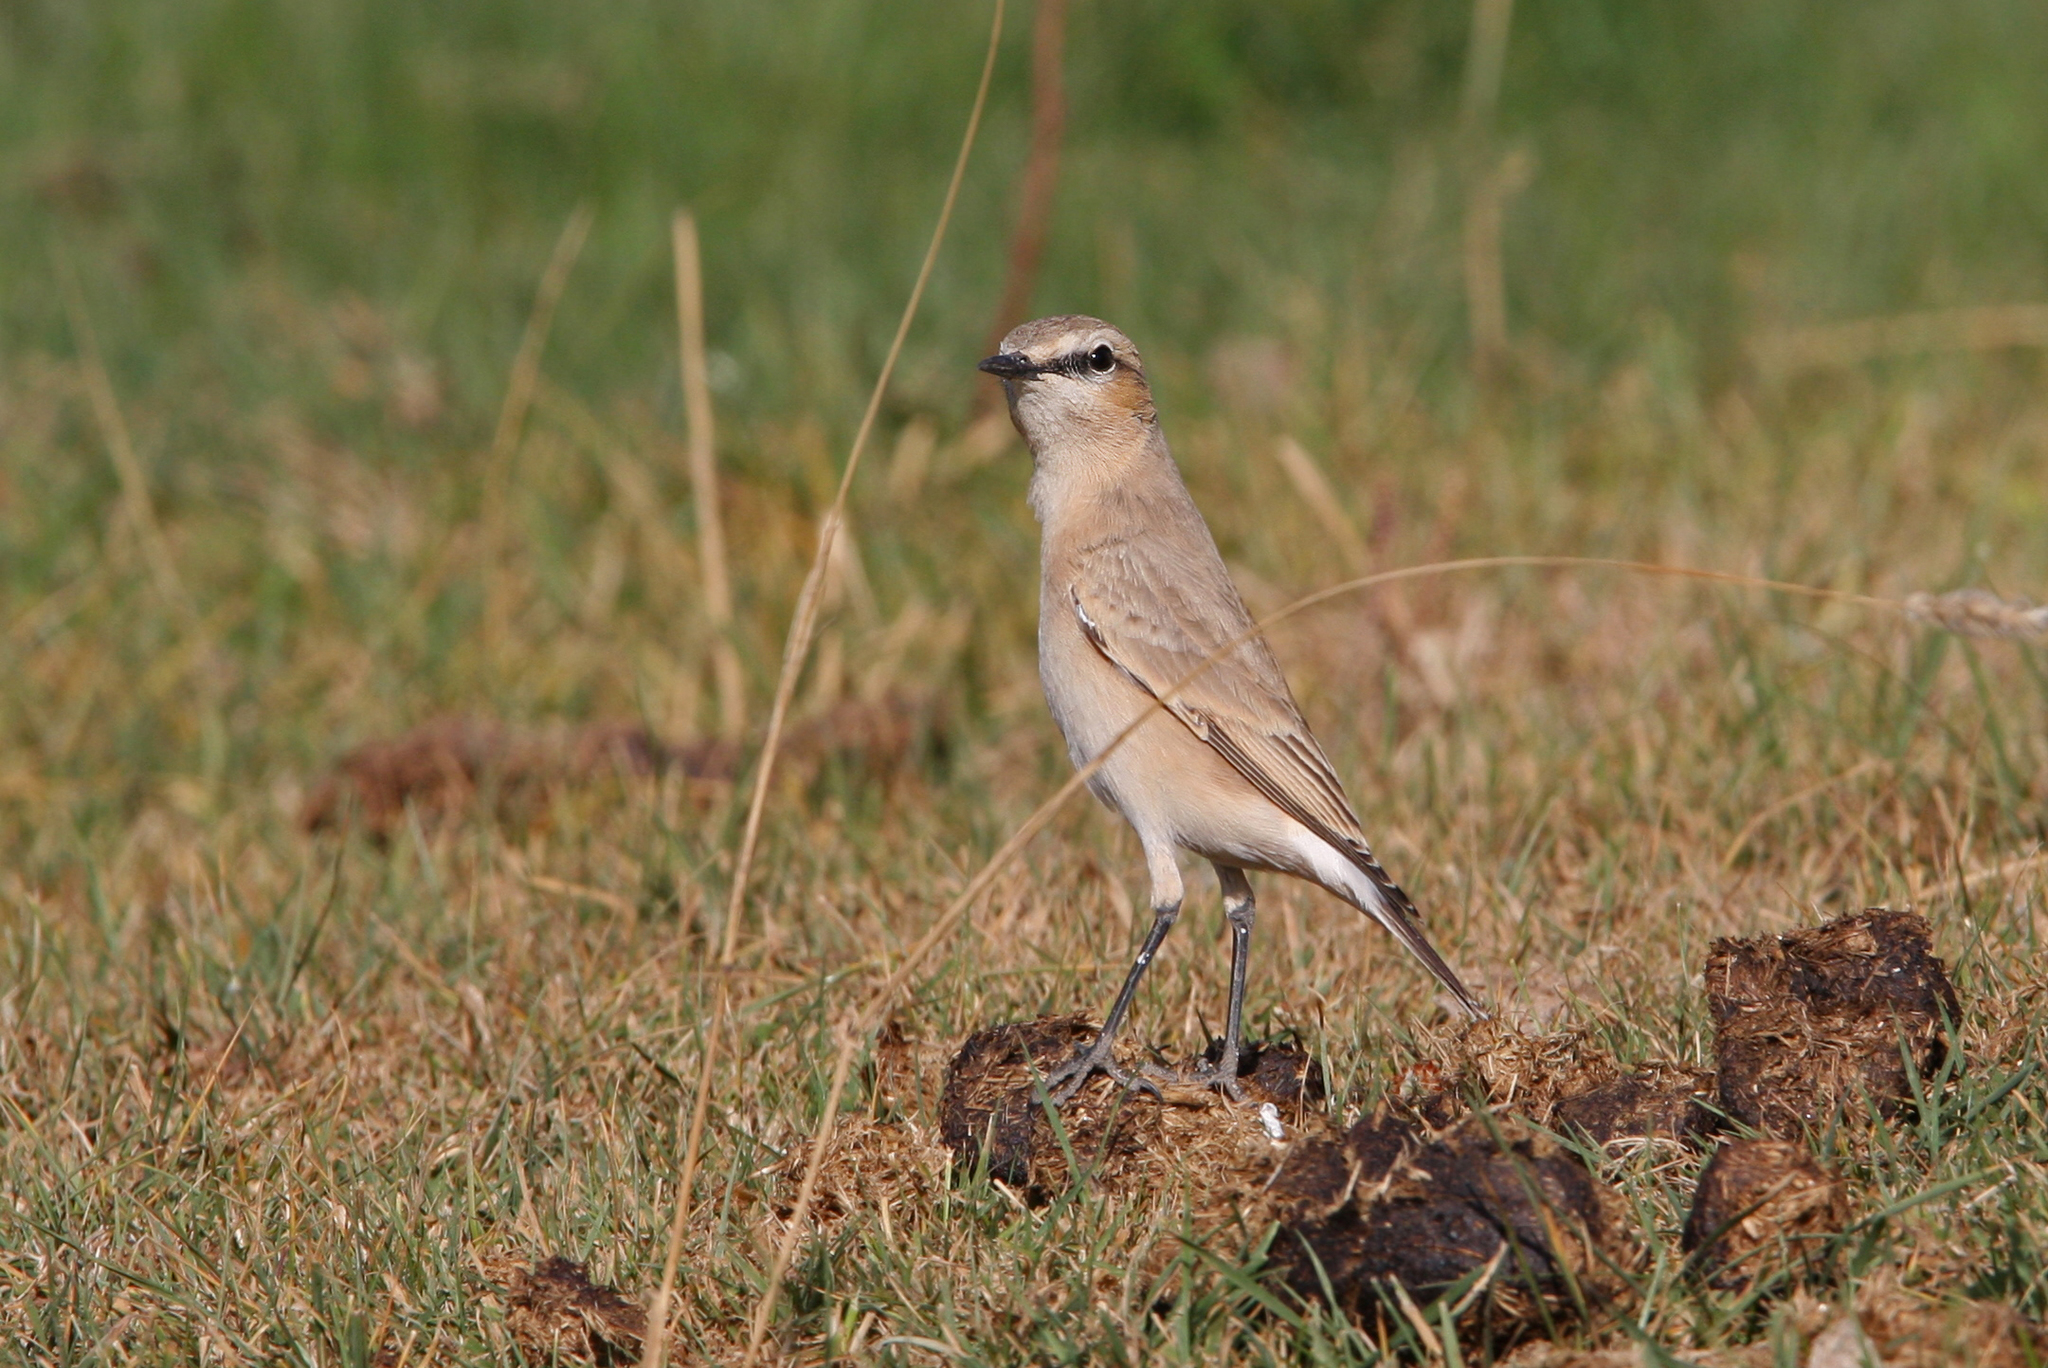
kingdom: Animalia
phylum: Chordata
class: Aves
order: Passeriformes
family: Muscicapidae
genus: Oenanthe
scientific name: Oenanthe isabellina
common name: Isabelline wheatear
